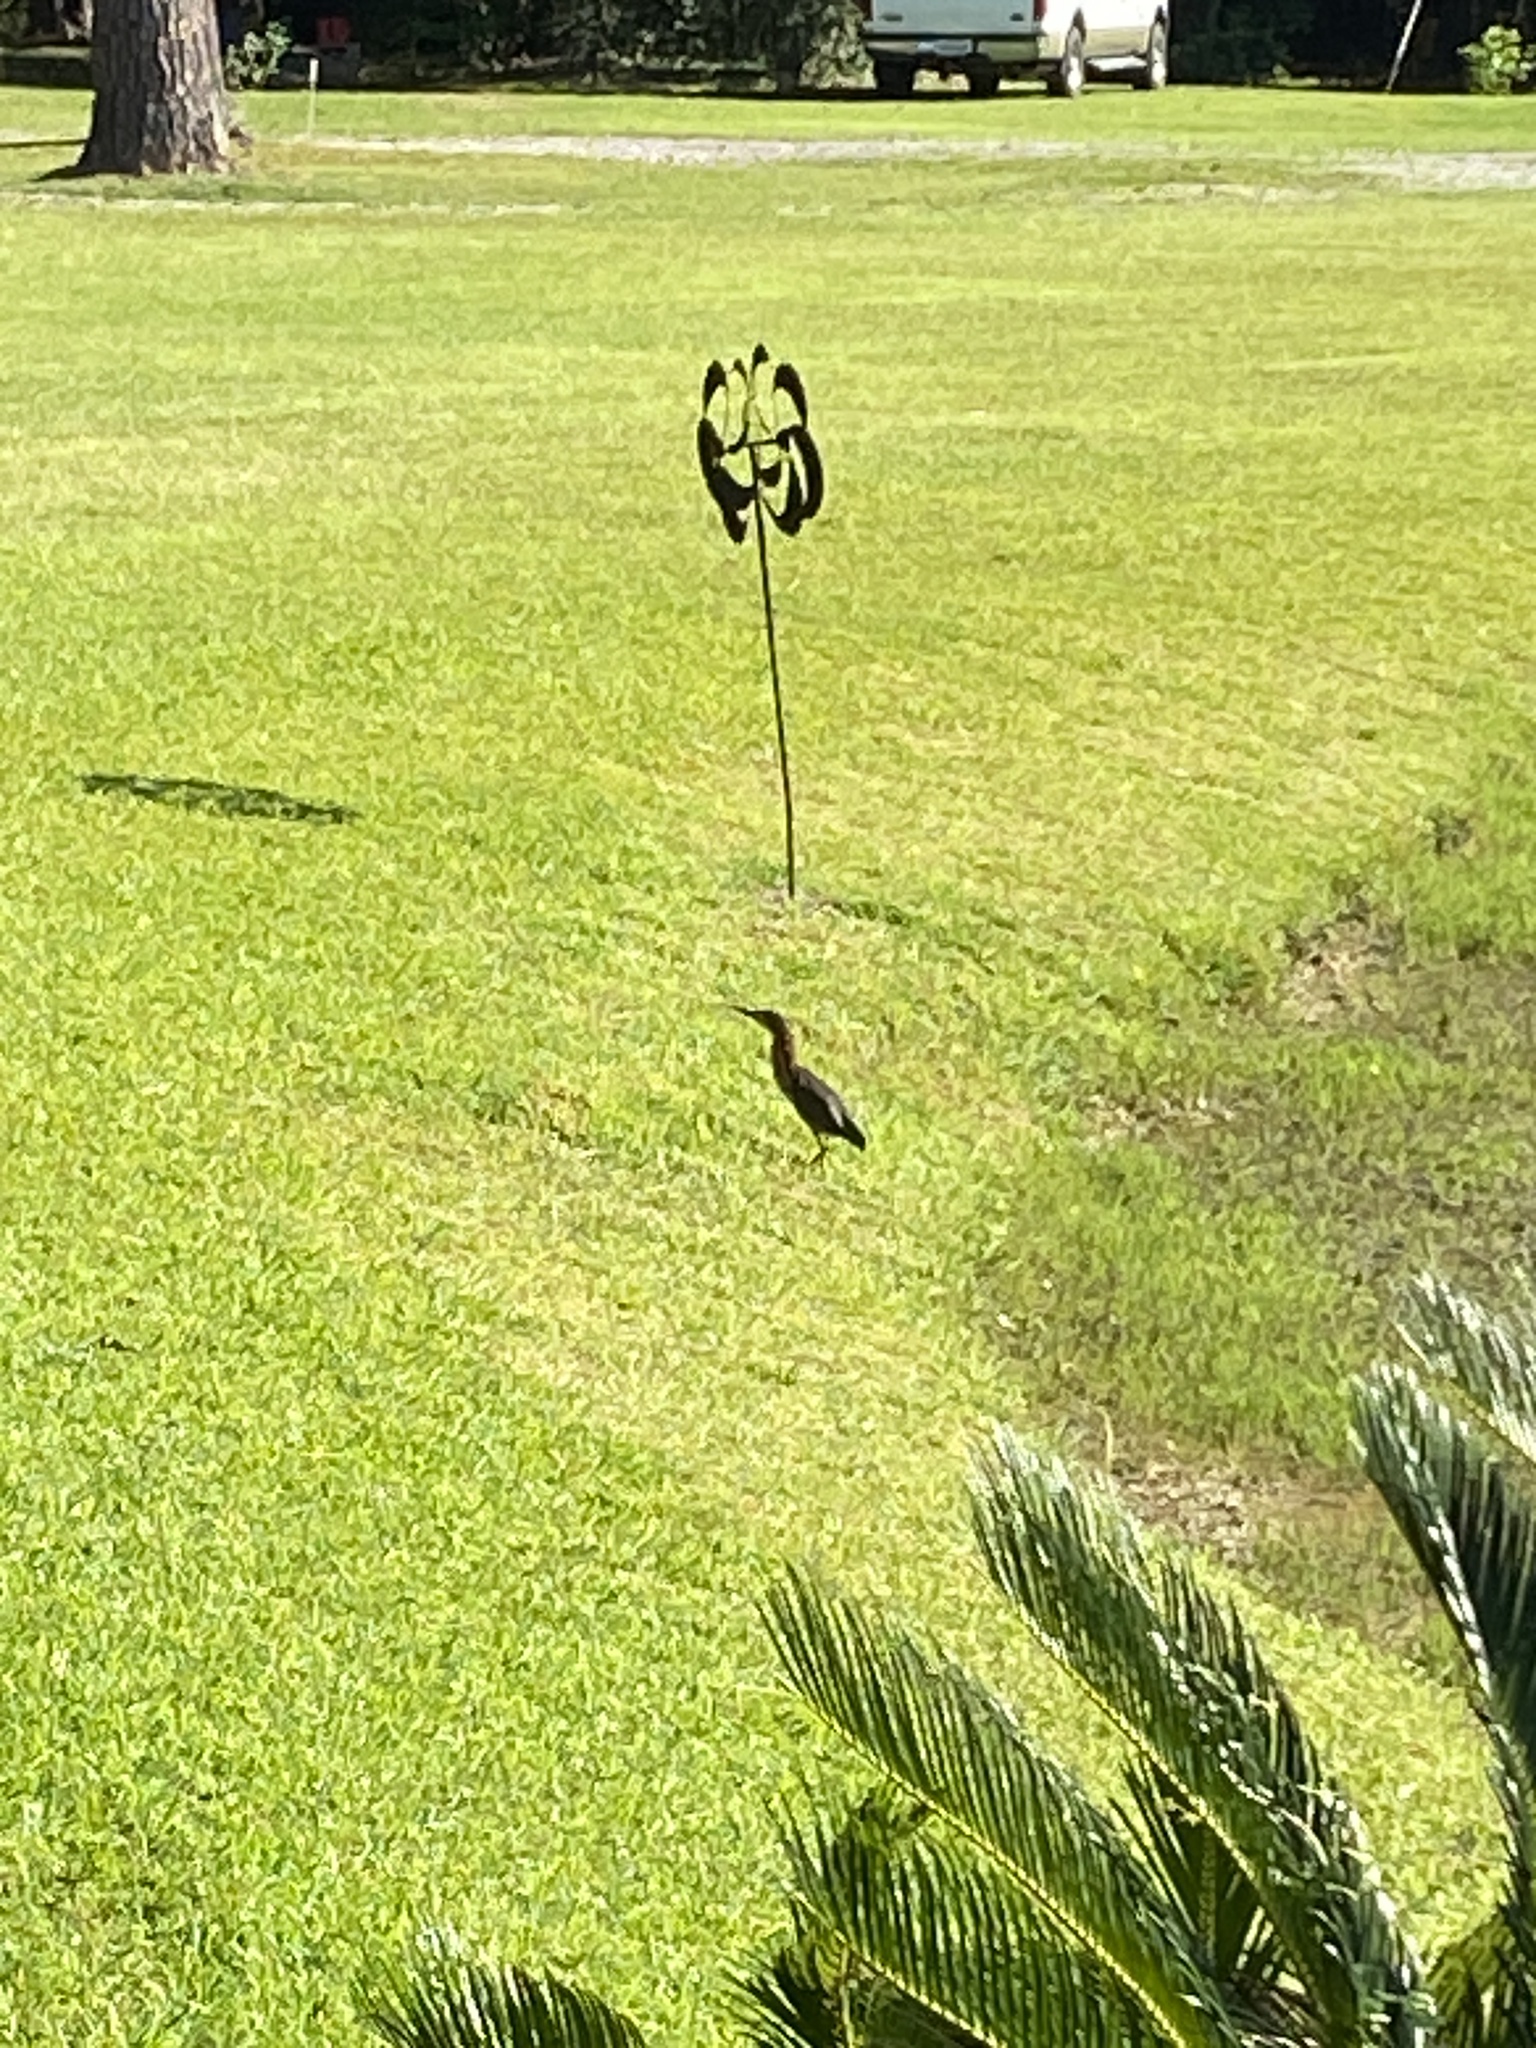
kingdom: Animalia
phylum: Chordata
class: Aves
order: Pelecaniformes
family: Ardeidae
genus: Butorides
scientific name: Butorides virescens
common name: Green heron
